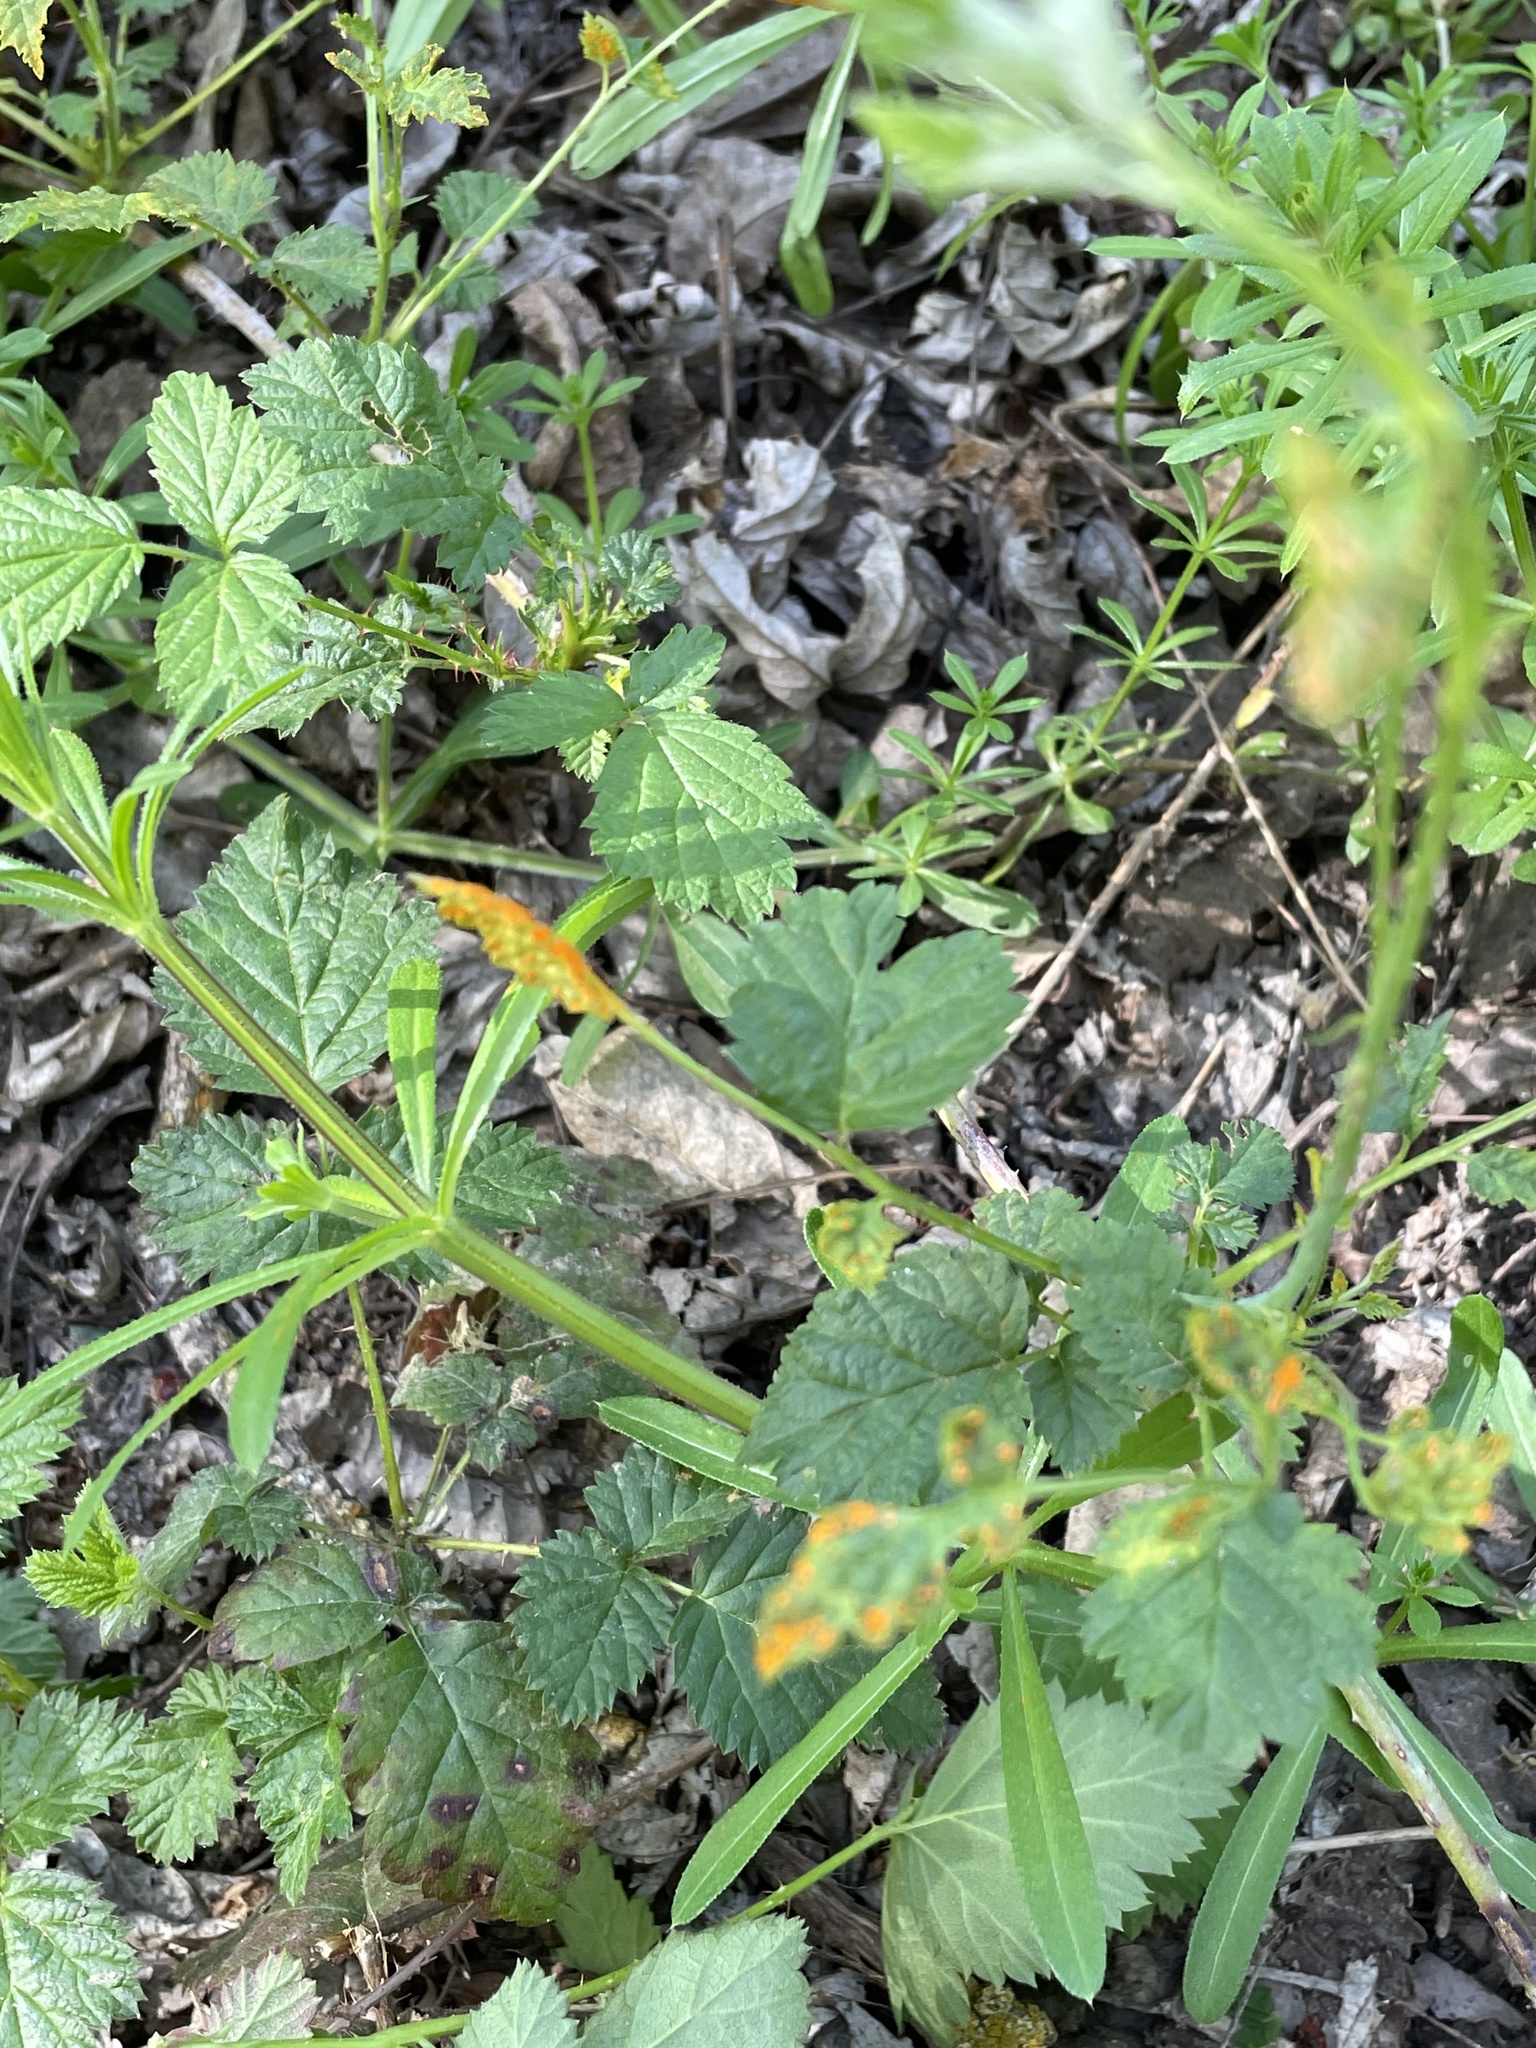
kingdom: Fungi
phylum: Basidiomycota
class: Pucciniomycetes
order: Pucciniales
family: Phragmidiaceae
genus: Arthuriomyces
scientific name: Arthuriomyces peckianus
